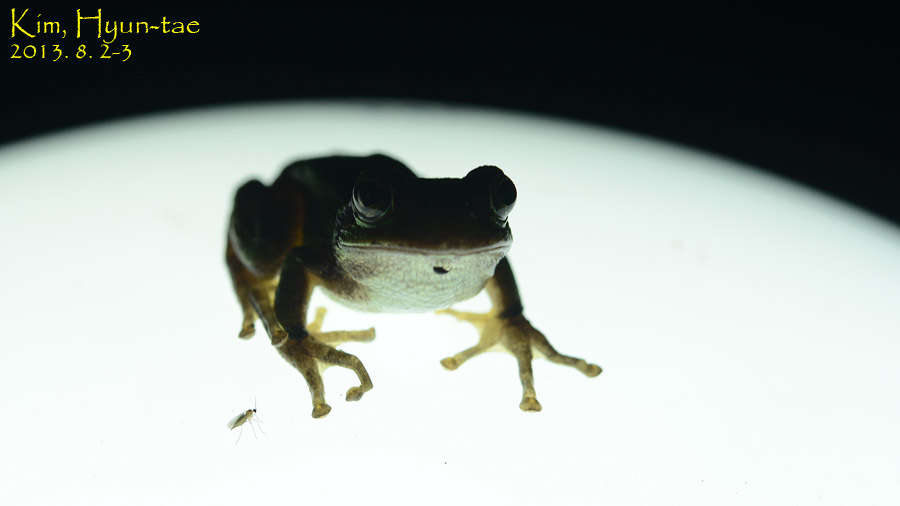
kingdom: Animalia
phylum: Chordata
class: Amphibia
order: Anura
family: Hylidae
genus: Dryophytes
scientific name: Dryophytes japonicus
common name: Japanese treefrog
